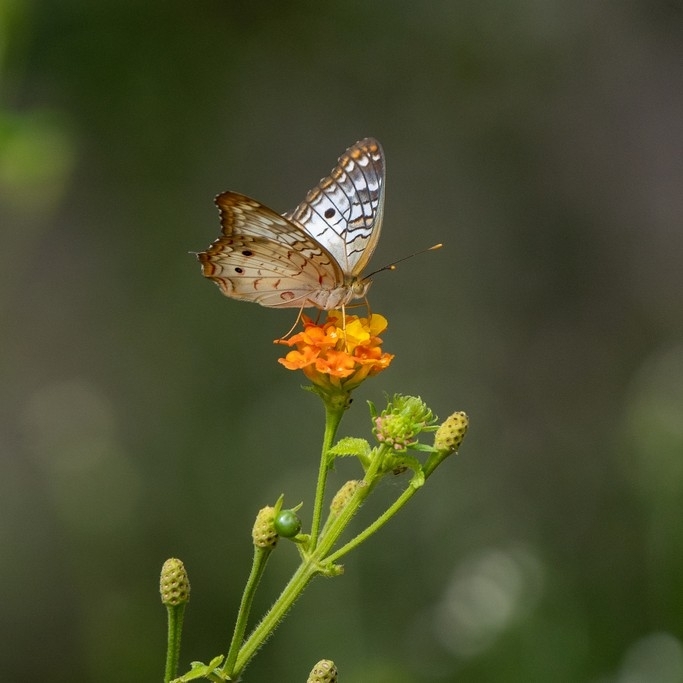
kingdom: Animalia
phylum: Arthropoda
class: Insecta
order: Lepidoptera
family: Nymphalidae
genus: Anartia
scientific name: Anartia jatrophae
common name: White peacock
